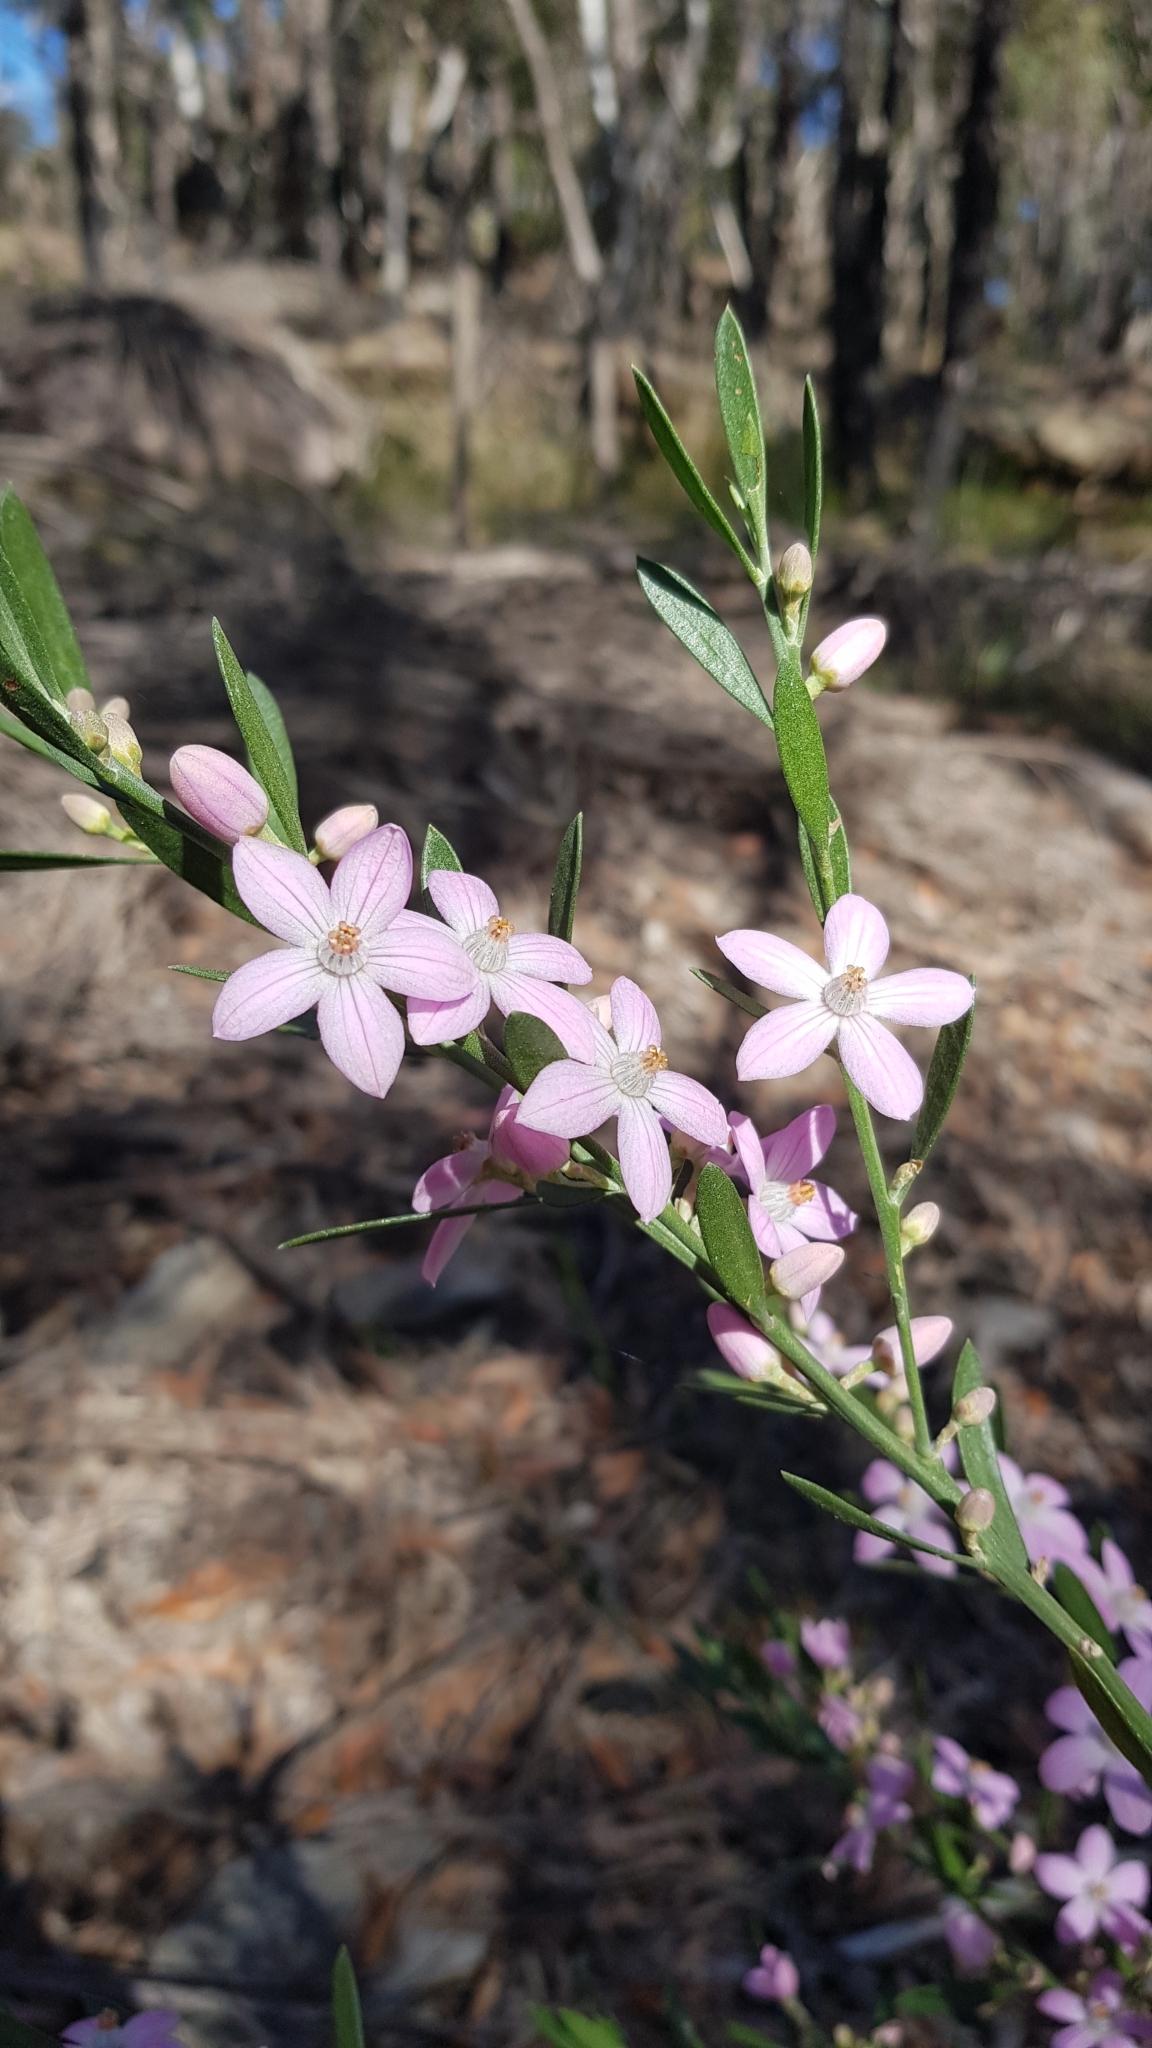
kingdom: Plantae
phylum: Tracheophyta
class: Magnoliopsida
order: Sapindales
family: Rutaceae
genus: Eriostemon
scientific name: Eriostemon australasius
